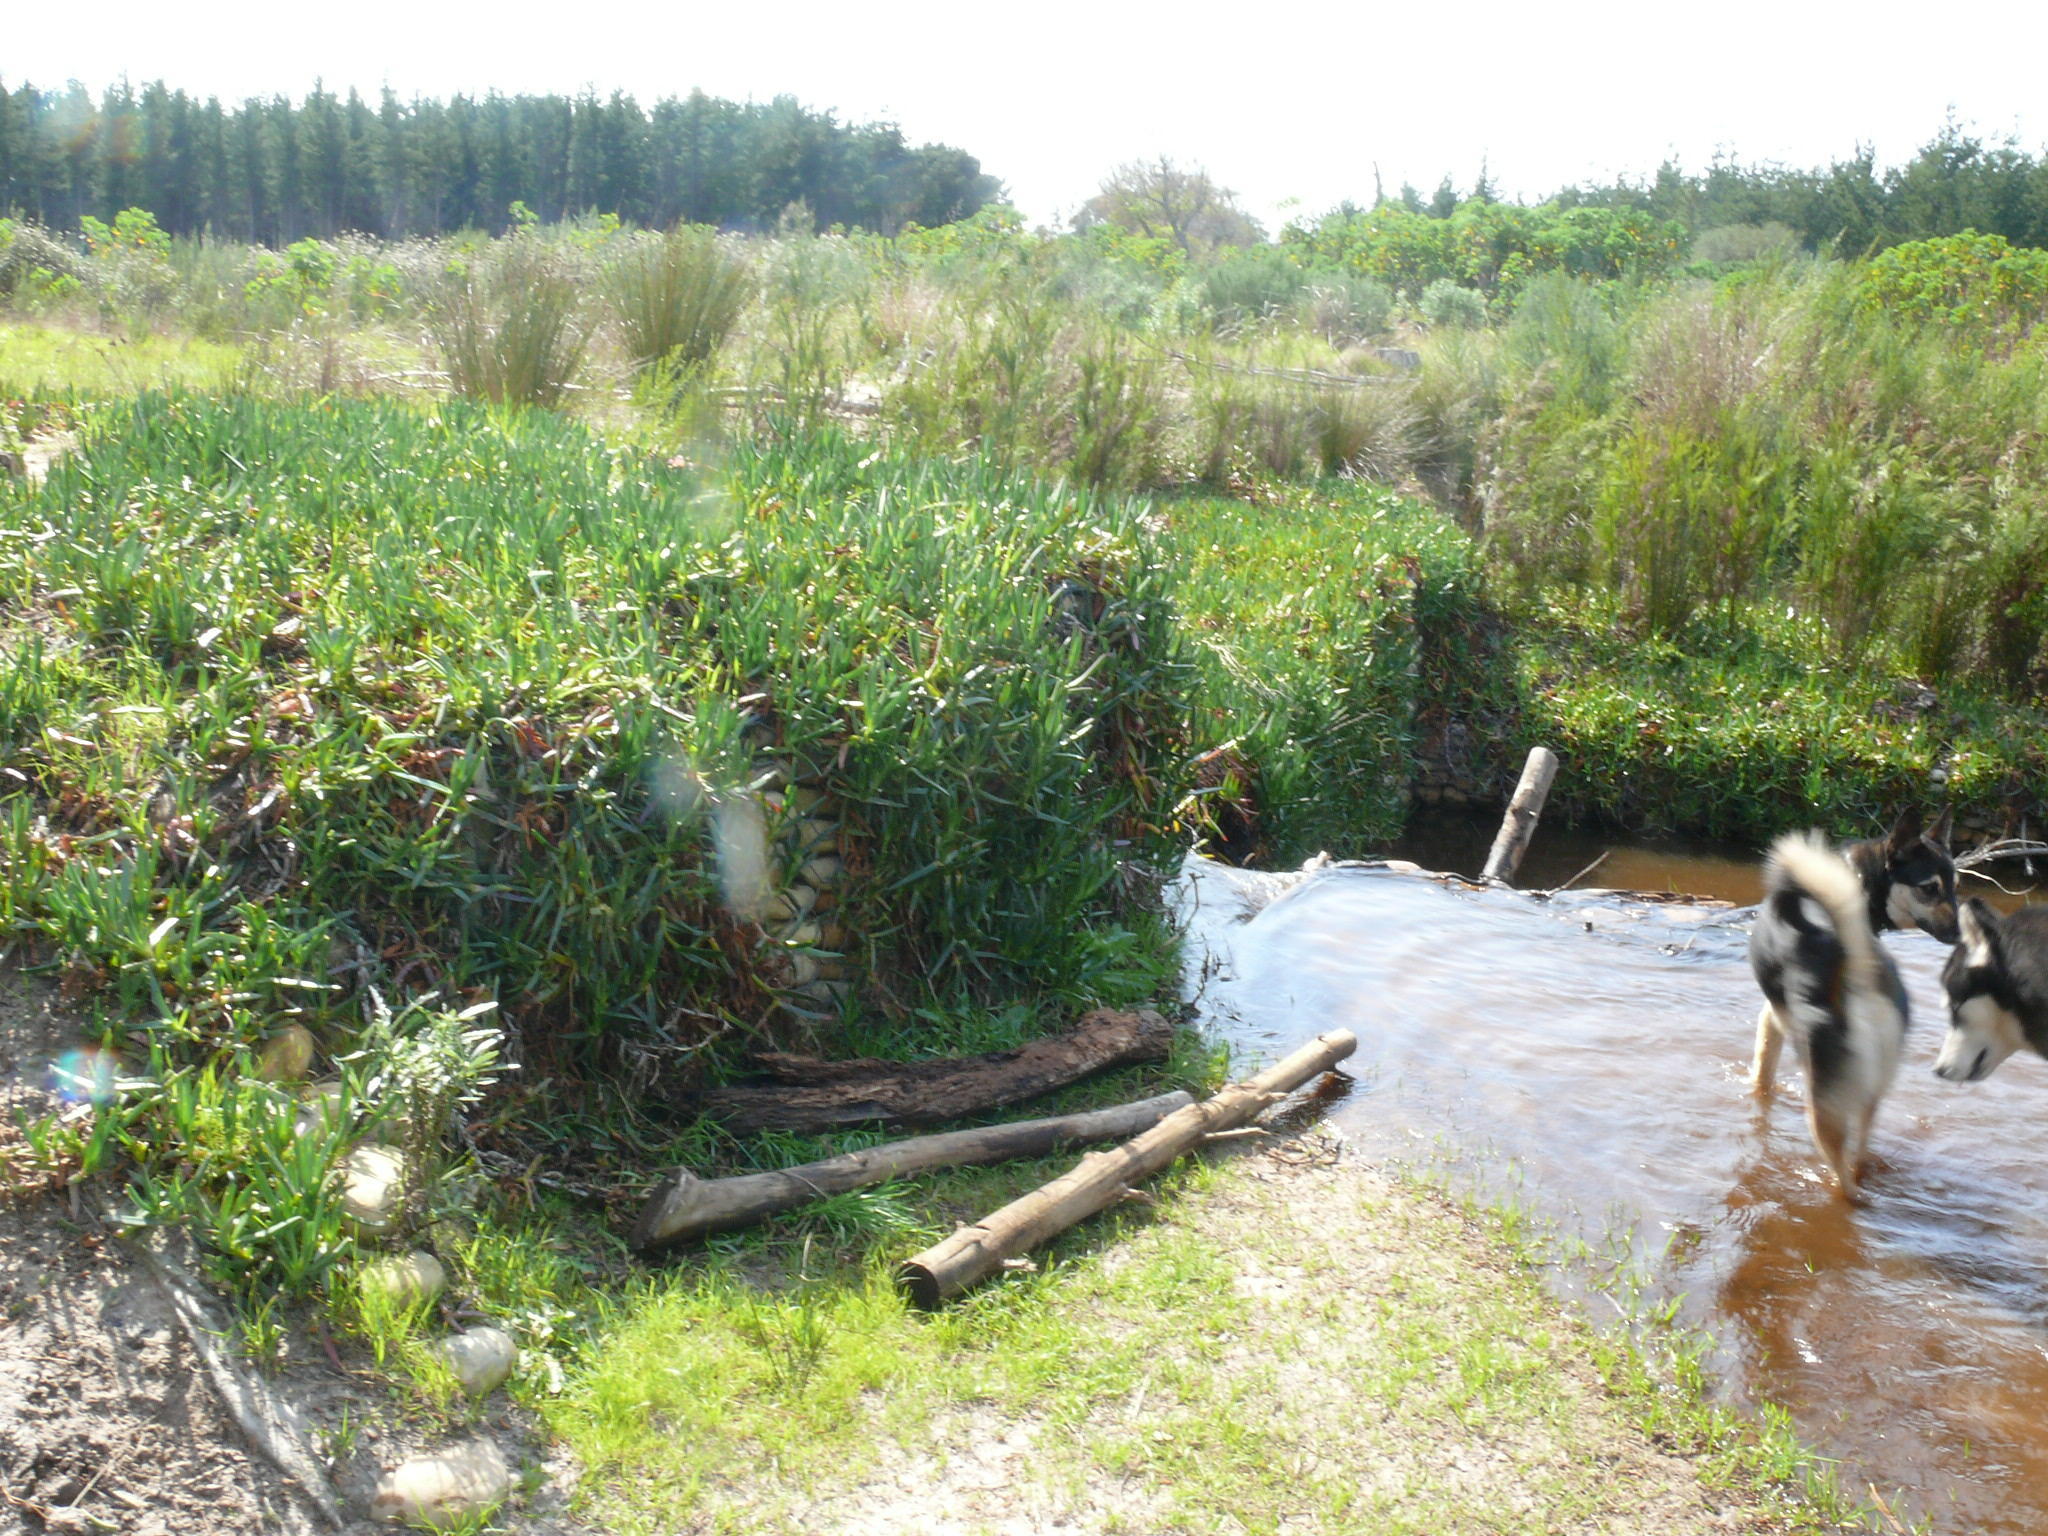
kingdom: Plantae
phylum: Tracheophyta
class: Magnoliopsida
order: Caryophyllales
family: Aizoaceae
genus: Carpobrotus
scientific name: Carpobrotus edulis
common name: Hottentot-fig
